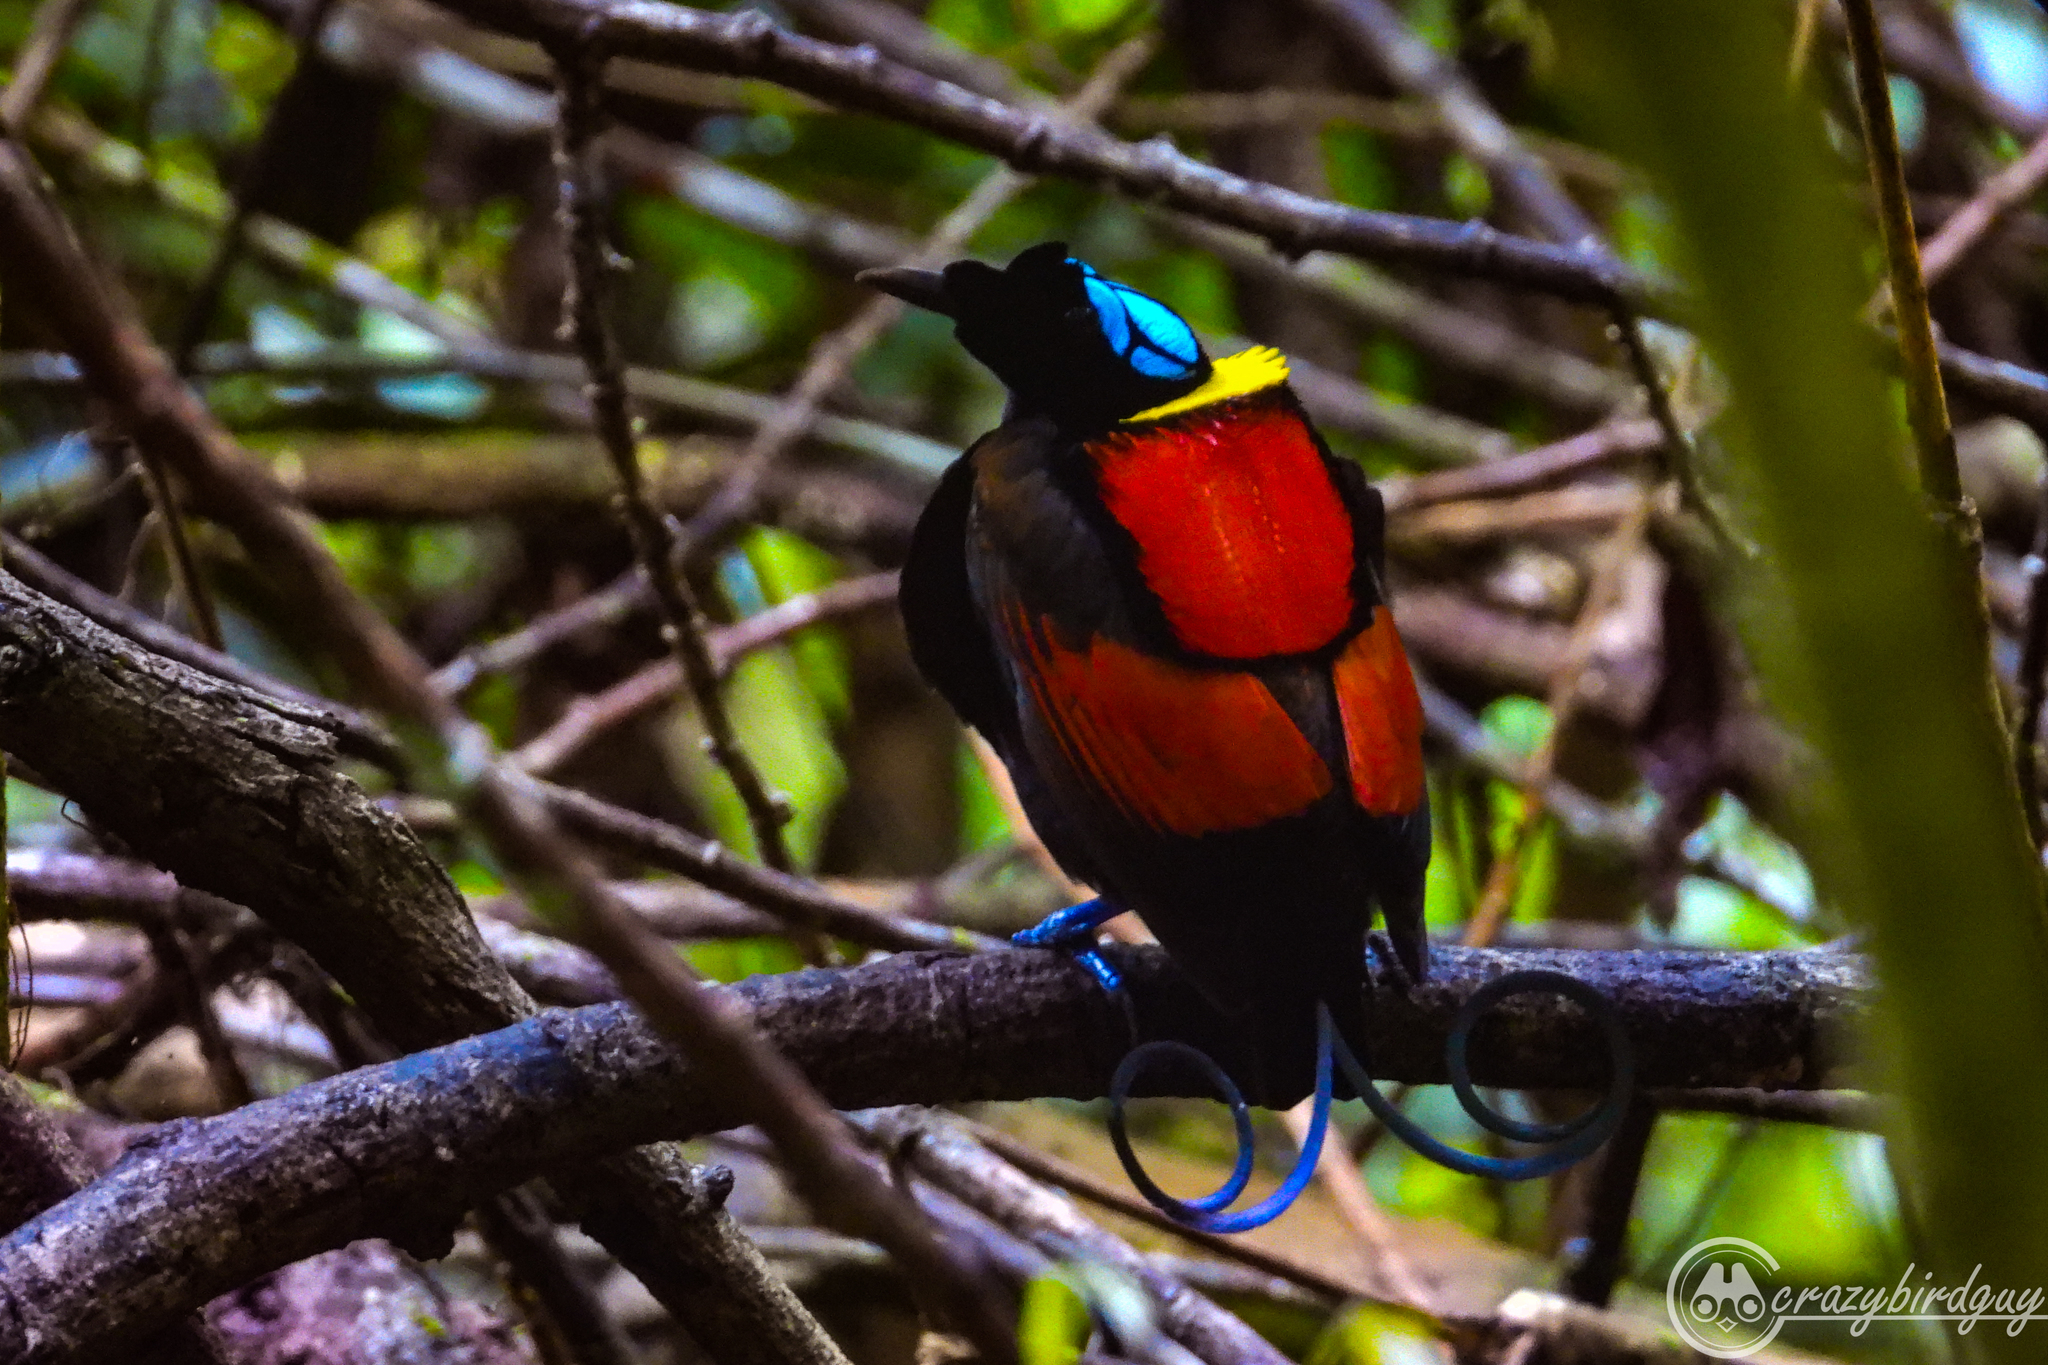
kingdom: Animalia
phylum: Chordata
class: Aves
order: Passeriformes
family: Paradisaeidae
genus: Diphyllodes
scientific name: Diphyllodes respublica
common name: Wilson's bird-of-paradise
